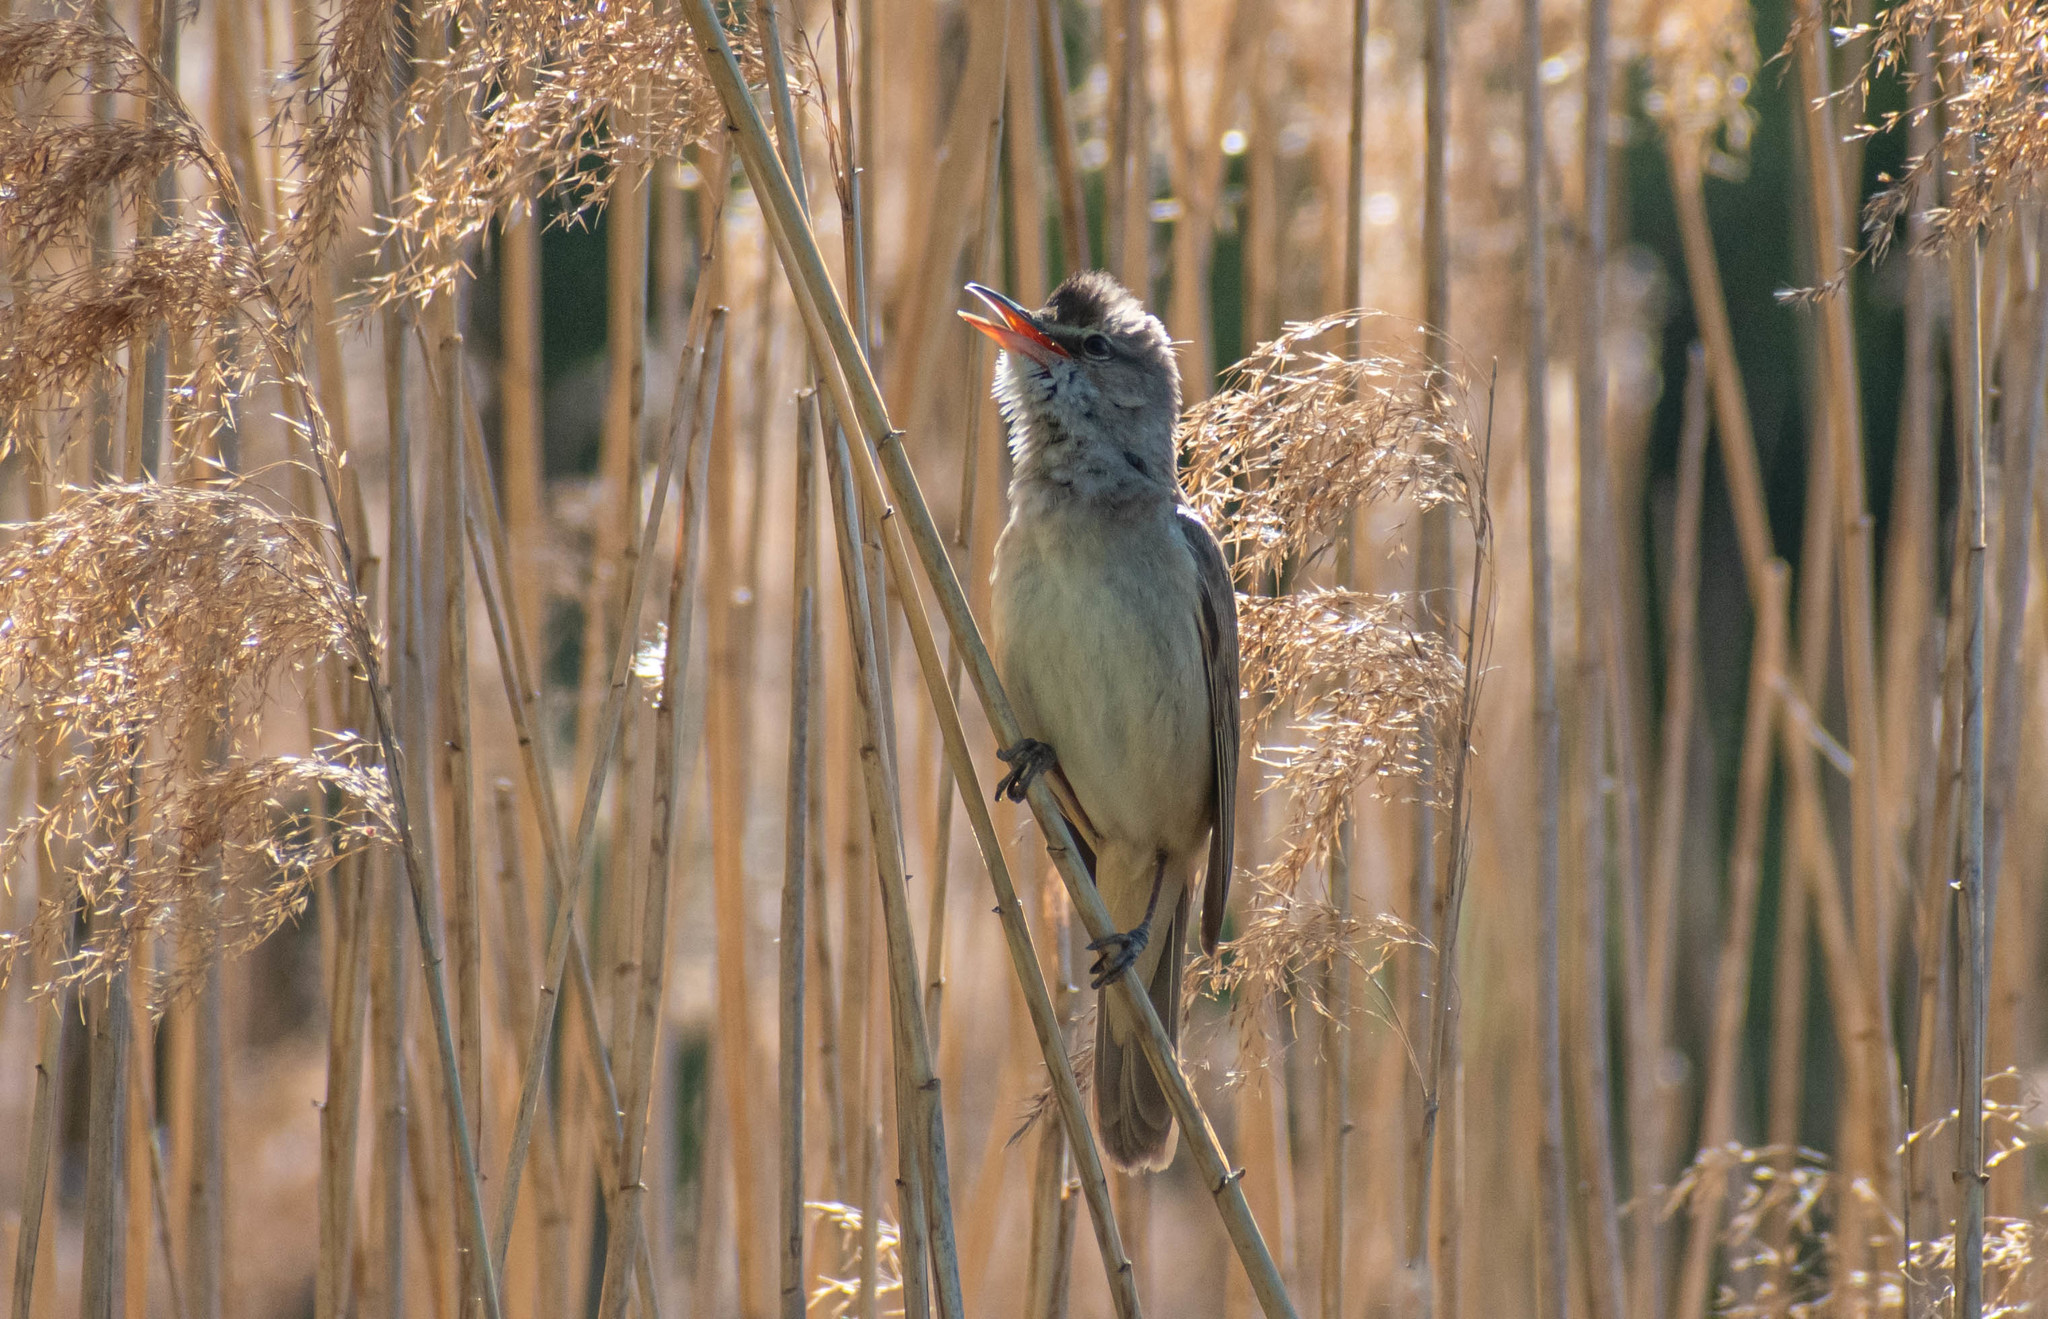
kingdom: Animalia
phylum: Chordata
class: Aves
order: Passeriformes
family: Acrocephalidae
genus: Acrocephalus
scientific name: Acrocephalus arundinaceus
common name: Great reed warbler
